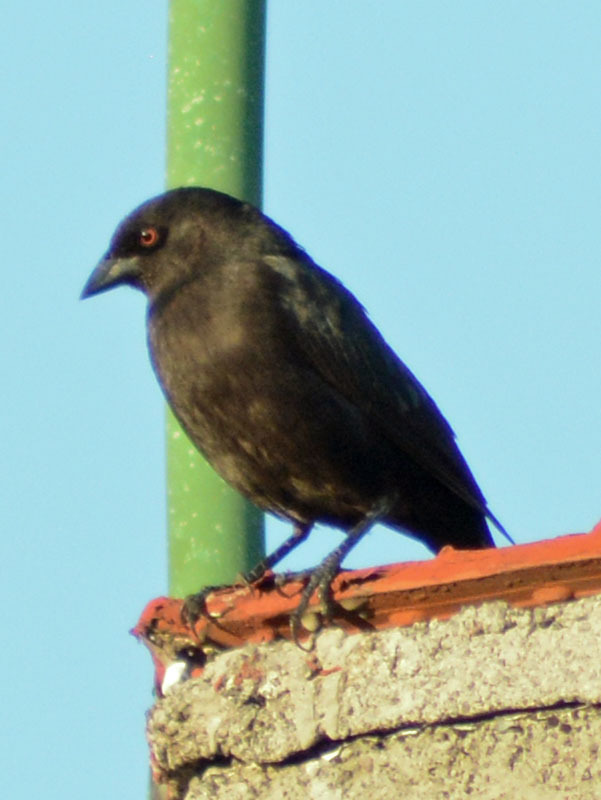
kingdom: Animalia
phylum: Chordata
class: Aves
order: Passeriformes
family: Icteridae
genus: Molothrus
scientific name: Molothrus aeneus
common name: Bronzed cowbird
